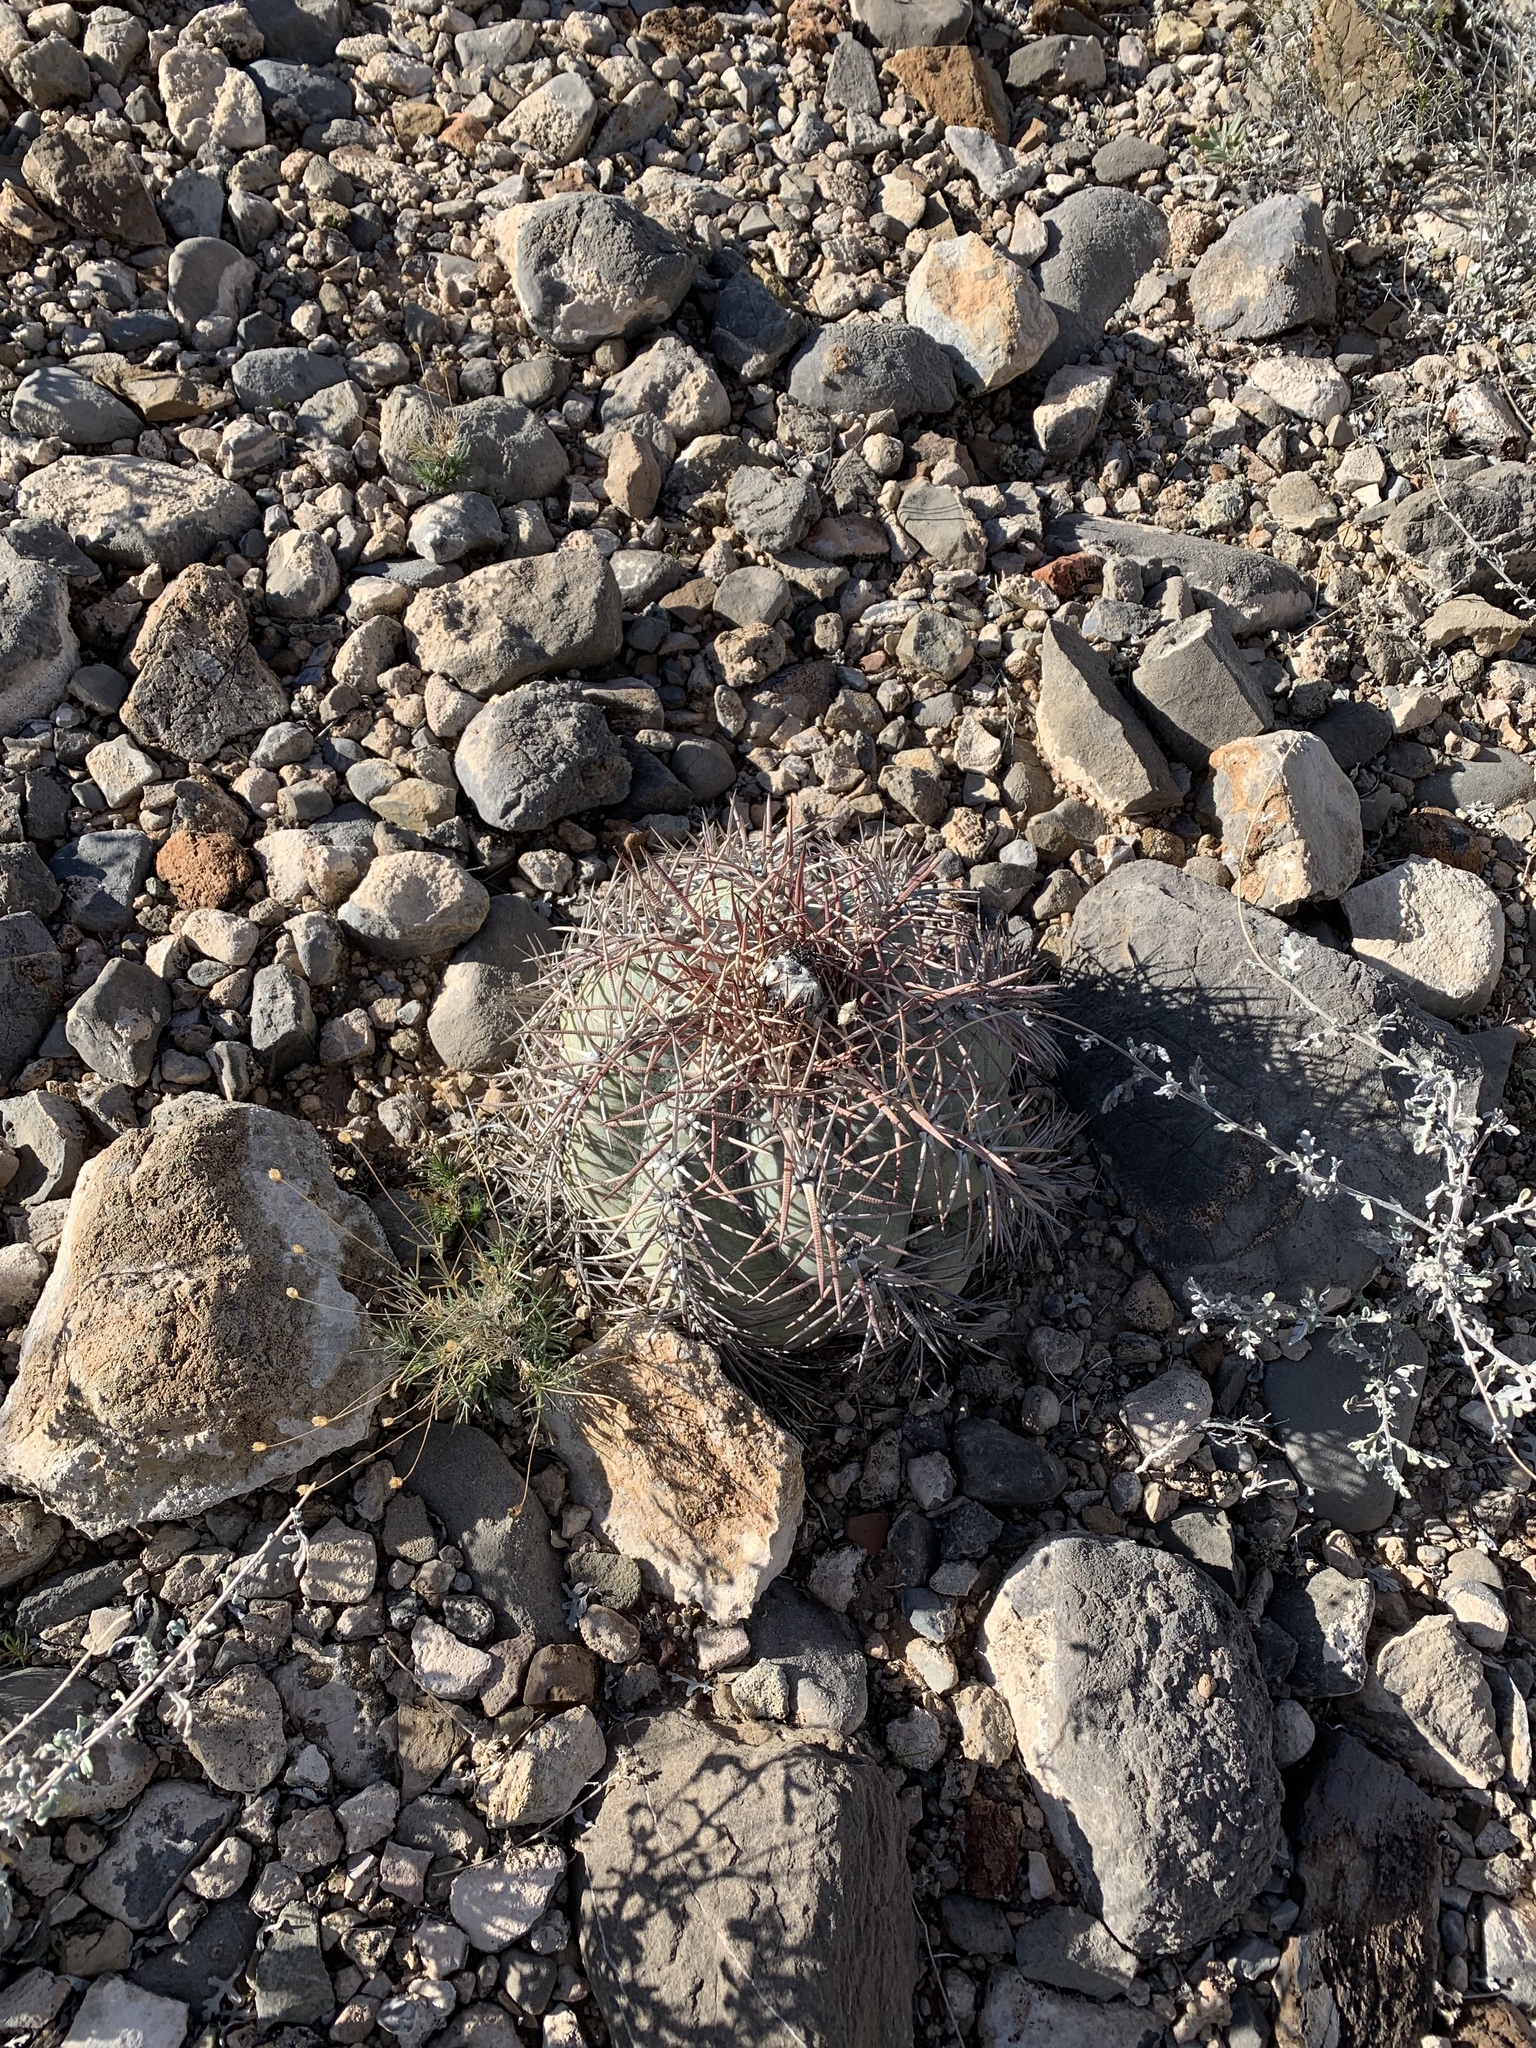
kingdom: Plantae
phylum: Tracheophyta
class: Magnoliopsida
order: Caryophyllales
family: Cactaceae
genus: Echinocactus
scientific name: Echinocactus horizonthalonius
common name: Devilshead
